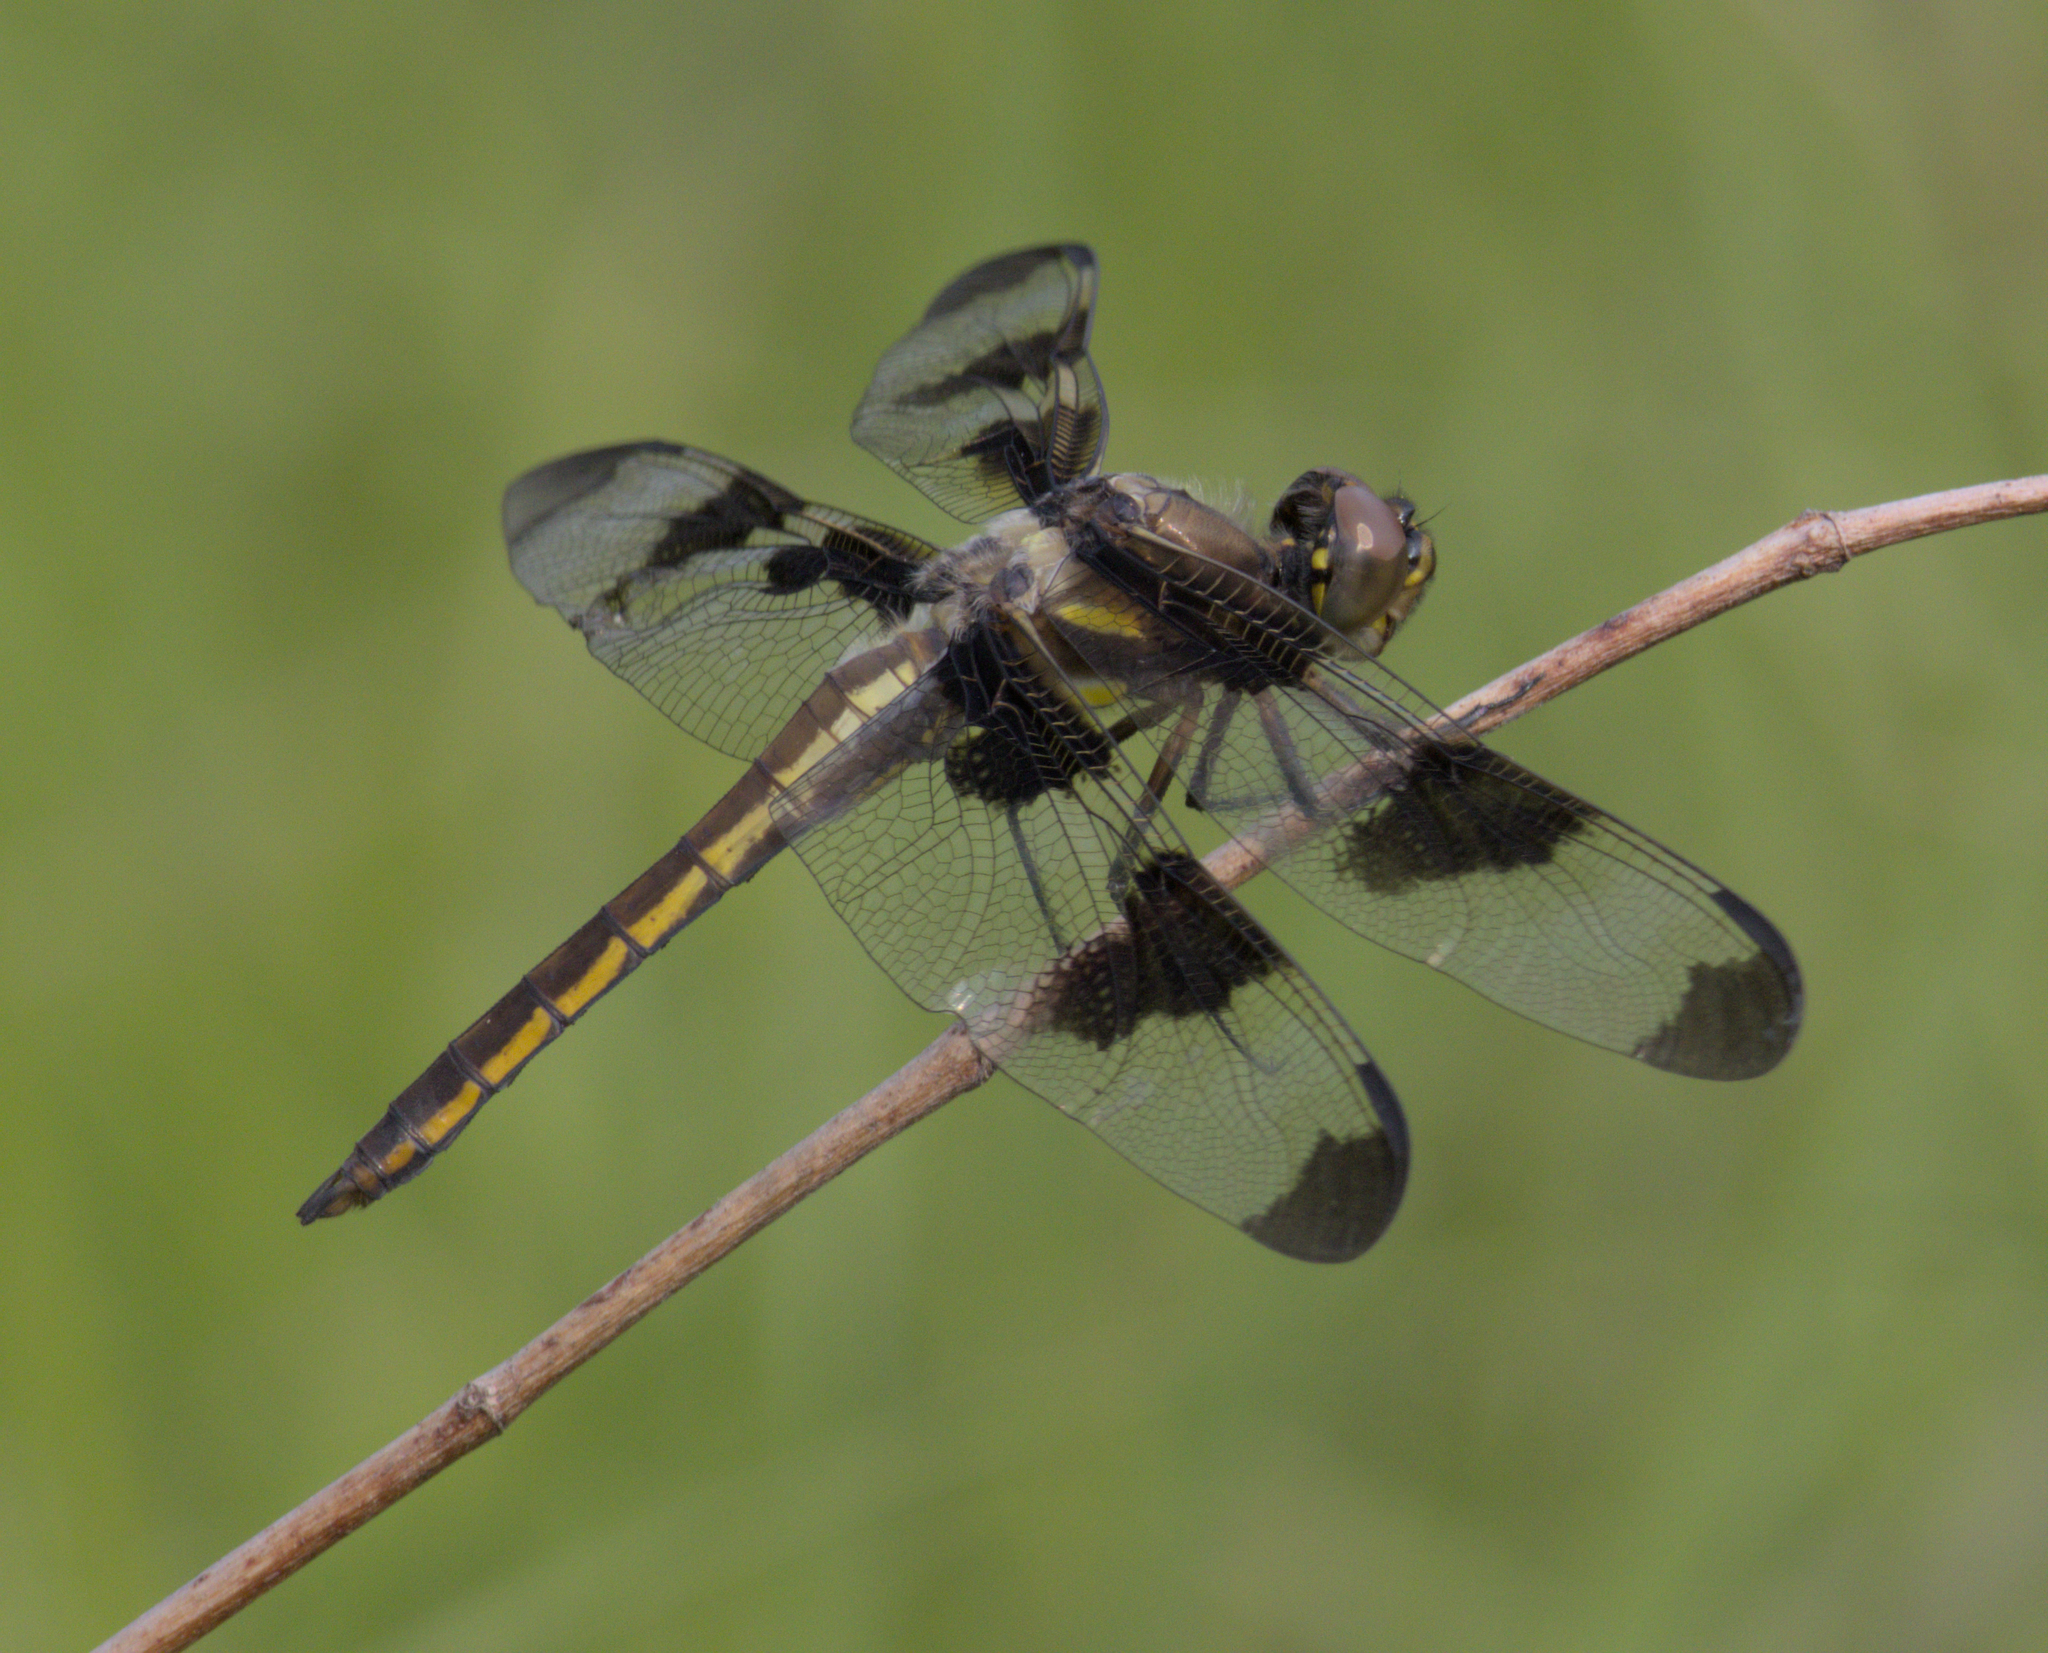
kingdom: Animalia
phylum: Arthropoda
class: Insecta
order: Odonata
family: Libellulidae
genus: Libellula
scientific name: Libellula pulchella
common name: Twelve-spotted skimmer
